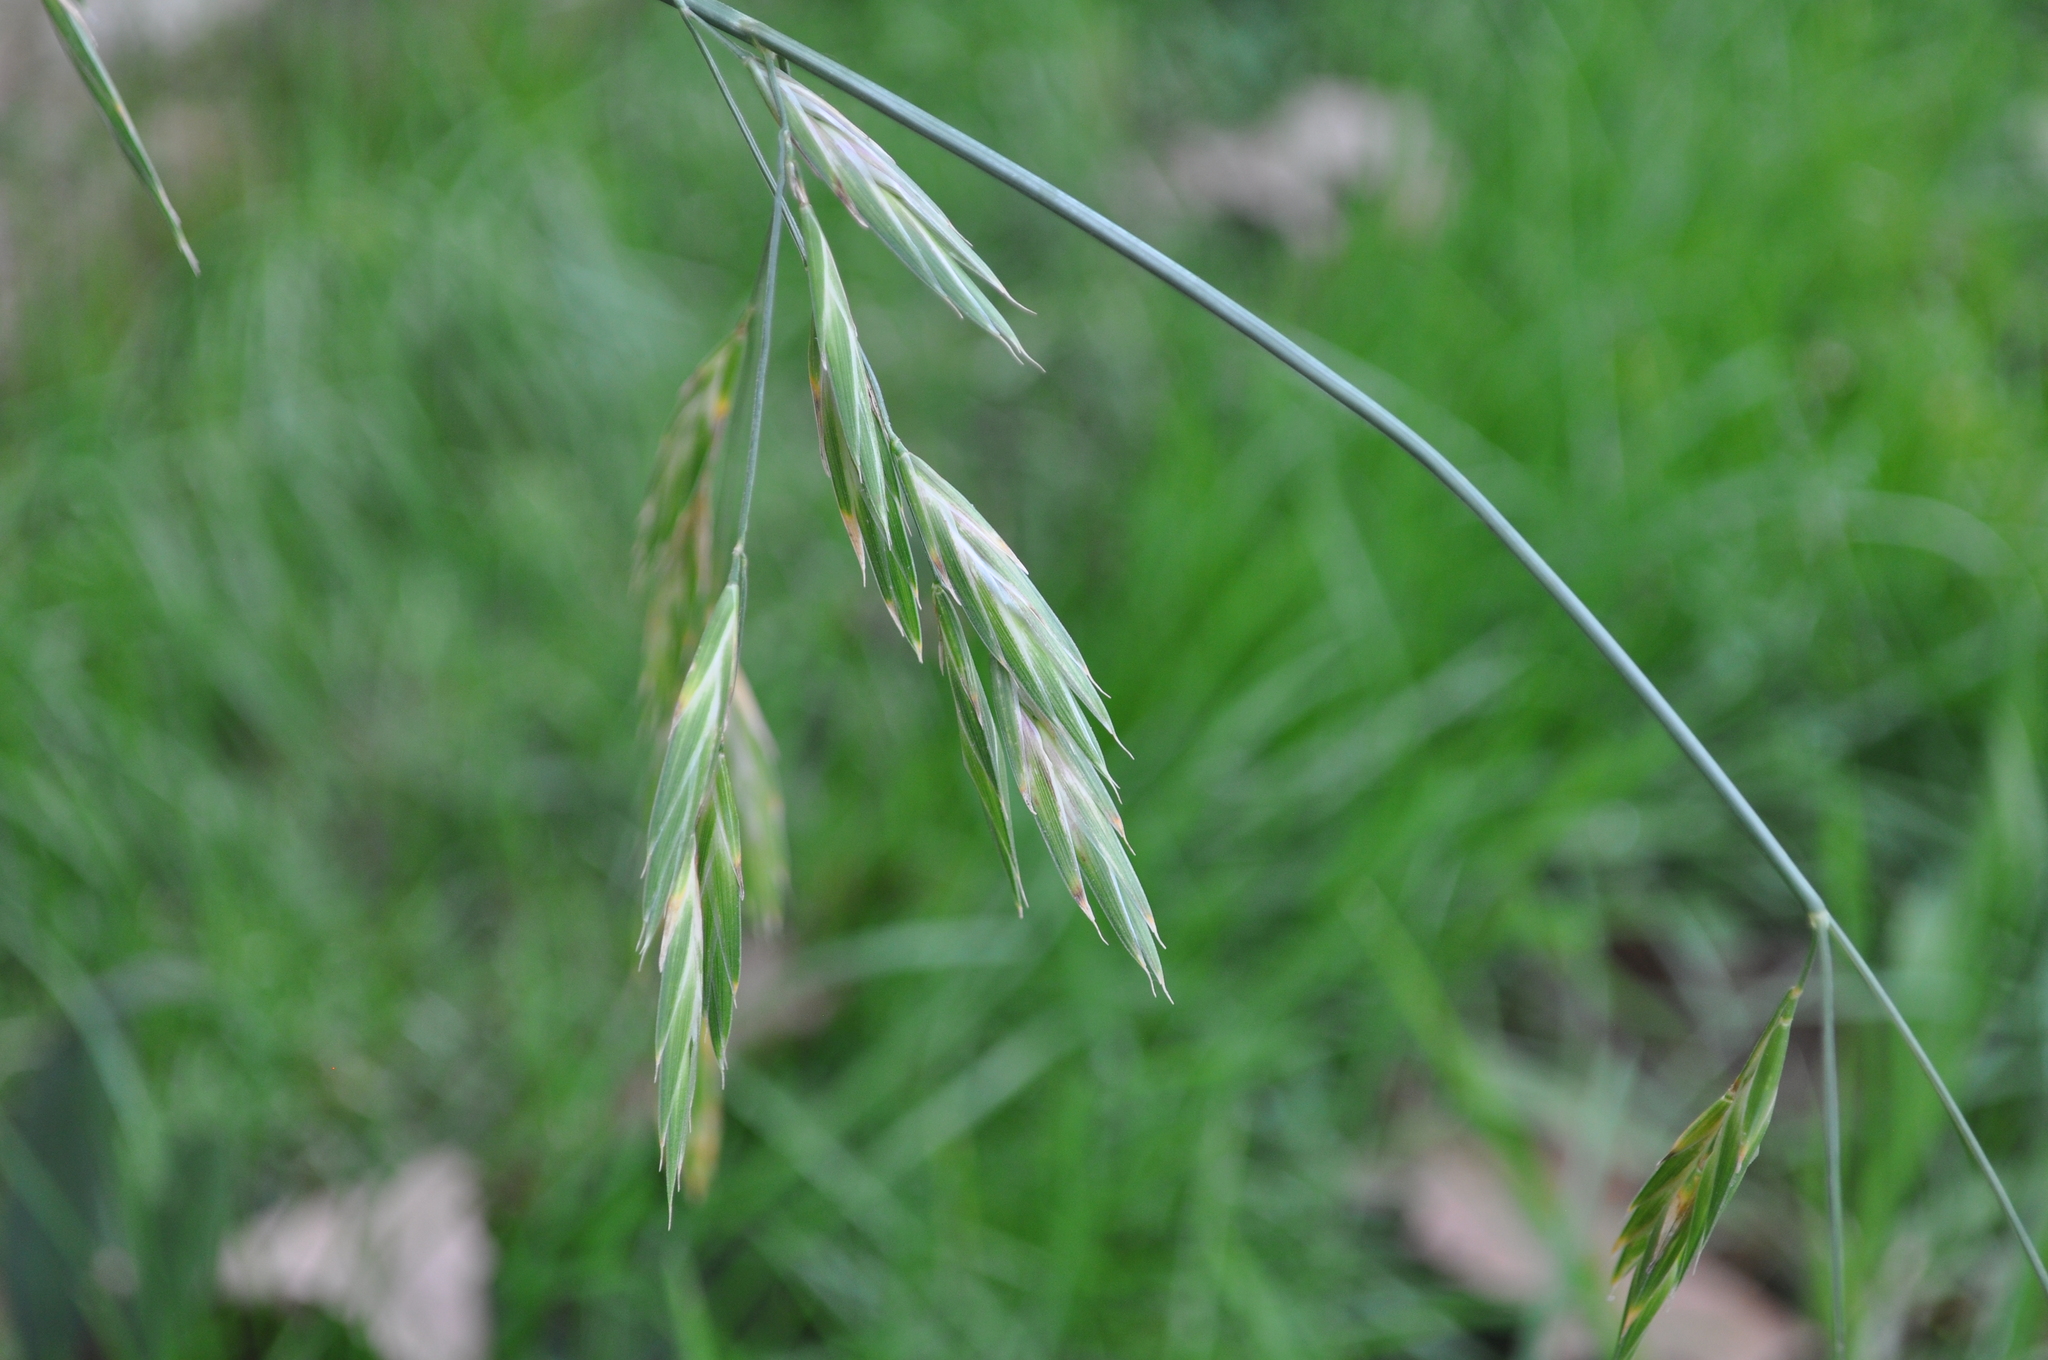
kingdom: Plantae
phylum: Tracheophyta
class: Liliopsida
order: Poales
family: Poaceae
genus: Bromus
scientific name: Bromus catharticus
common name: Rescuegrass
